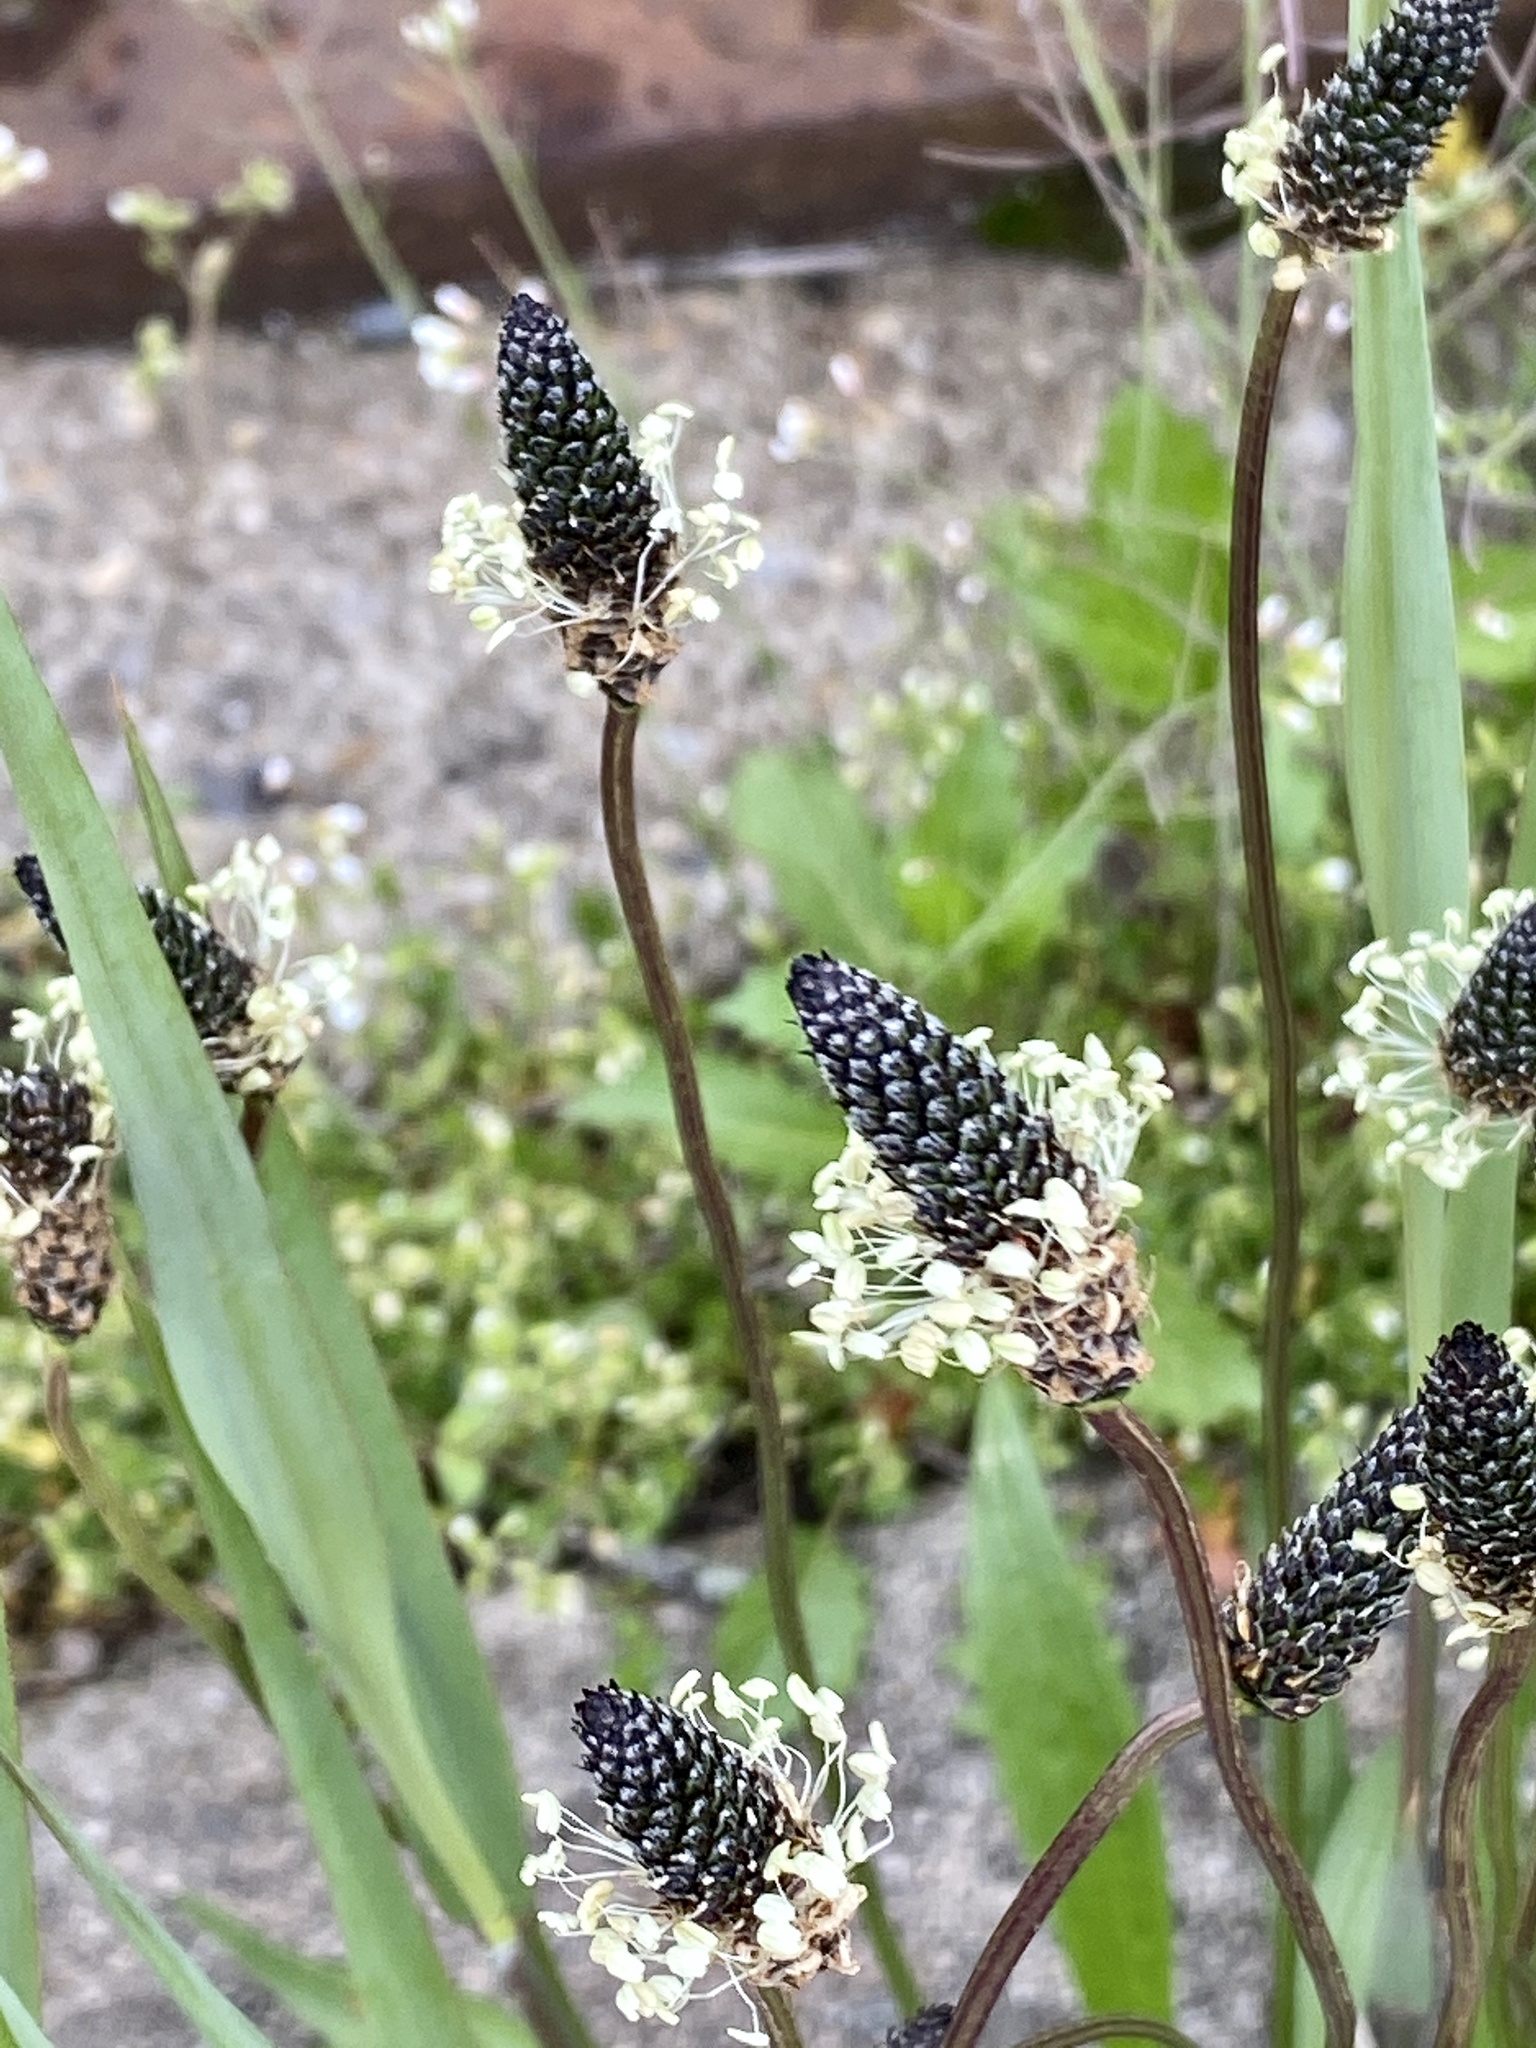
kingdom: Plantae
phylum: Tracheophyta
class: Magnoliopsida
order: Lamiales
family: Plantaginaceae
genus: Plantago
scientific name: Plantago lanceolata
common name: Ribwort plantain
